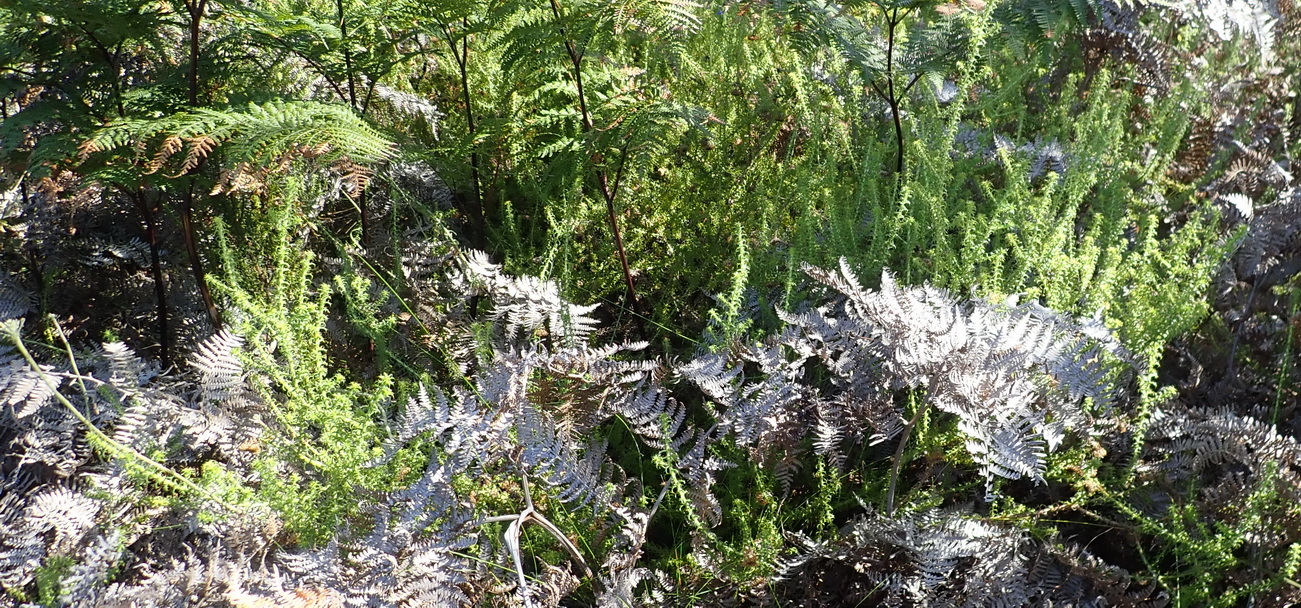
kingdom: Plantae
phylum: Tracheophyta
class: Magnoliopsida
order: Asterales
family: Asteraceae
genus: Cullumia
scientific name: Cullumia decurrens
